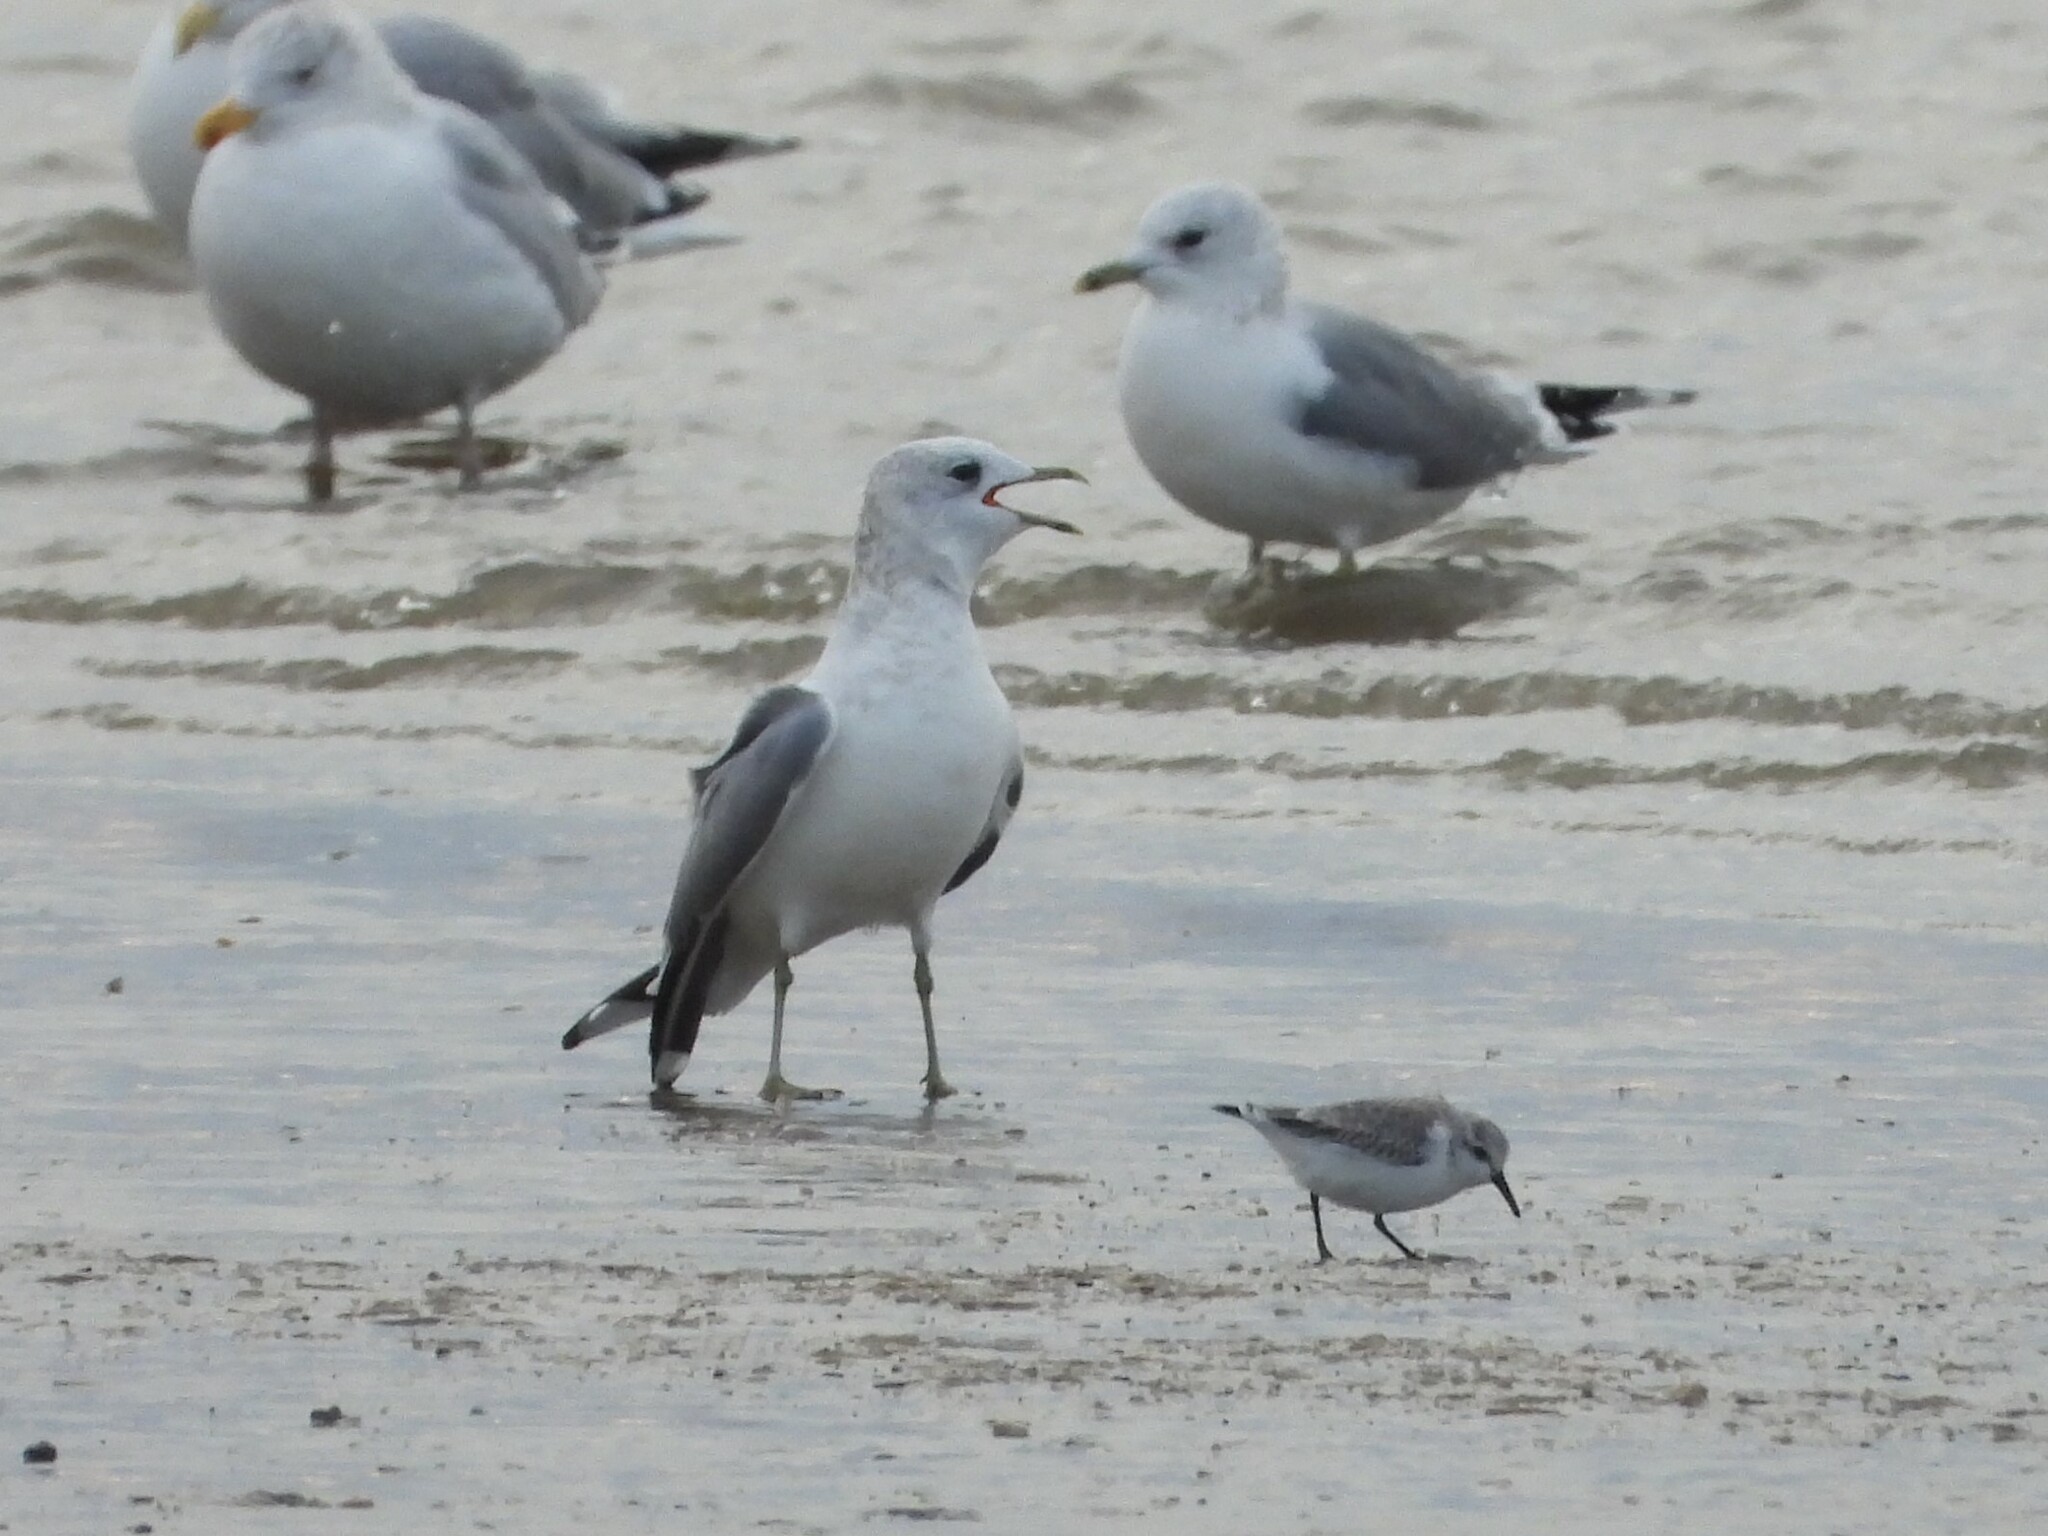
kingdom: Animalia
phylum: Chordata
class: Aves
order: Charadriiformes
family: Laridae
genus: Larus
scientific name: Larus canus
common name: Mew gull
